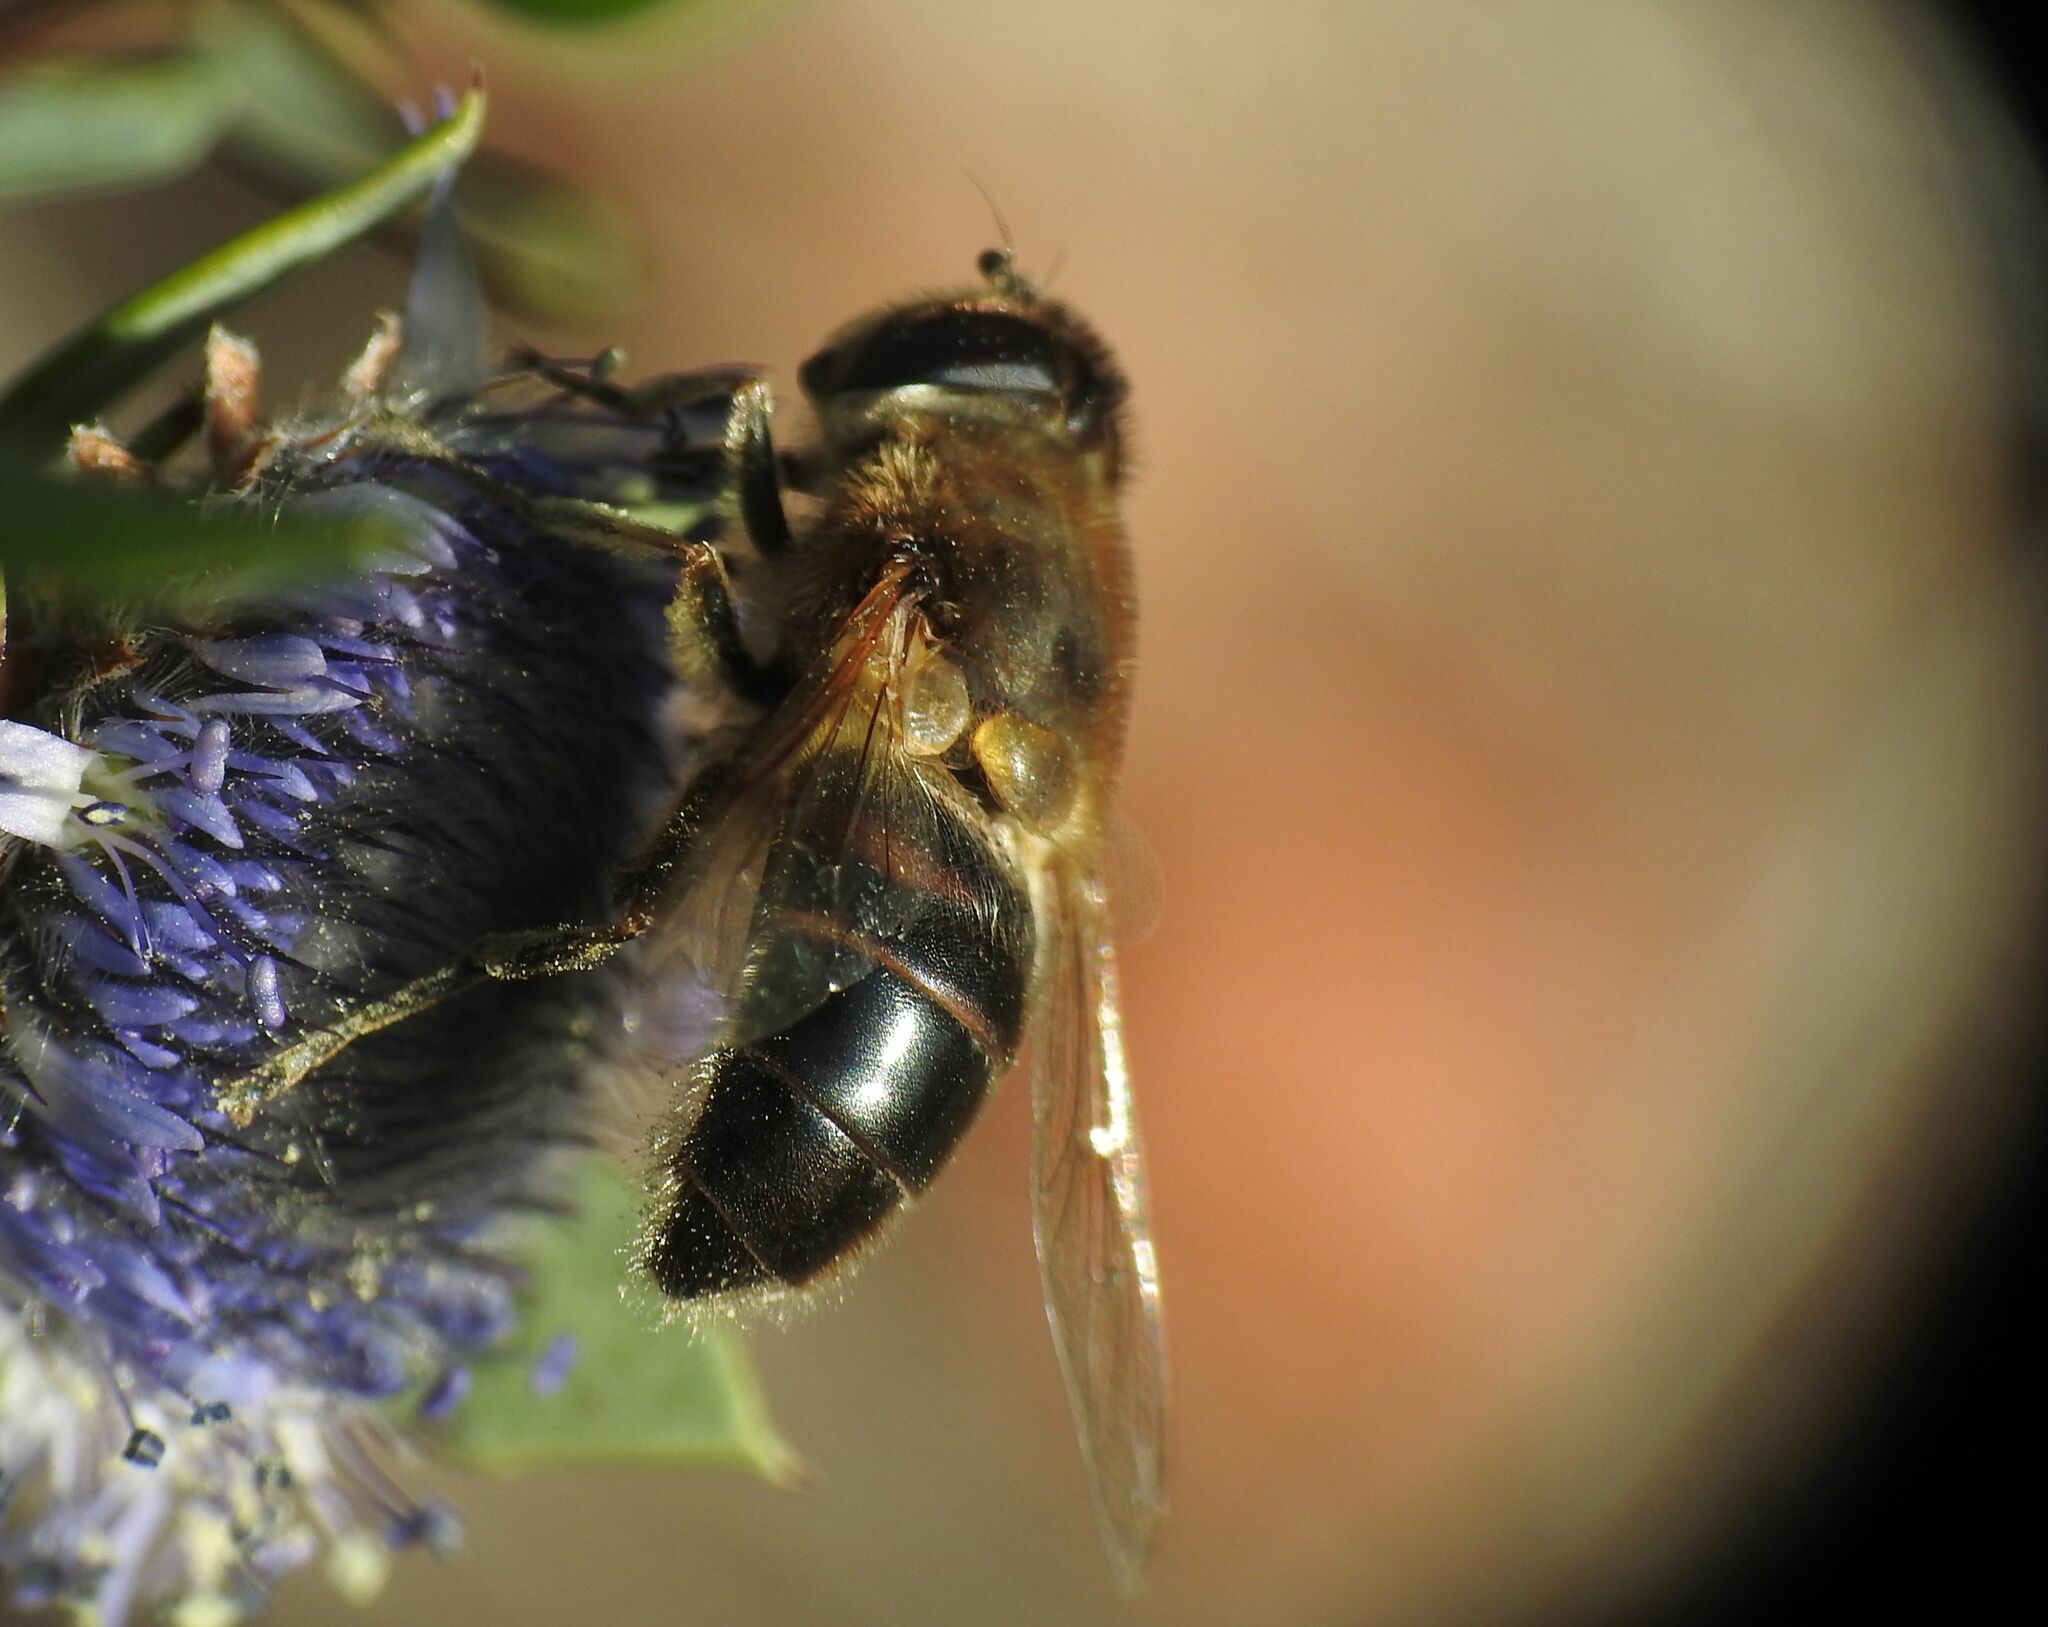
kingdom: Animalia
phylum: Arthropoda
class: Insecta
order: Diptera
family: Syrphidae
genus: Eristalis
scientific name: Eristalis tenax
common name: Drone fly
